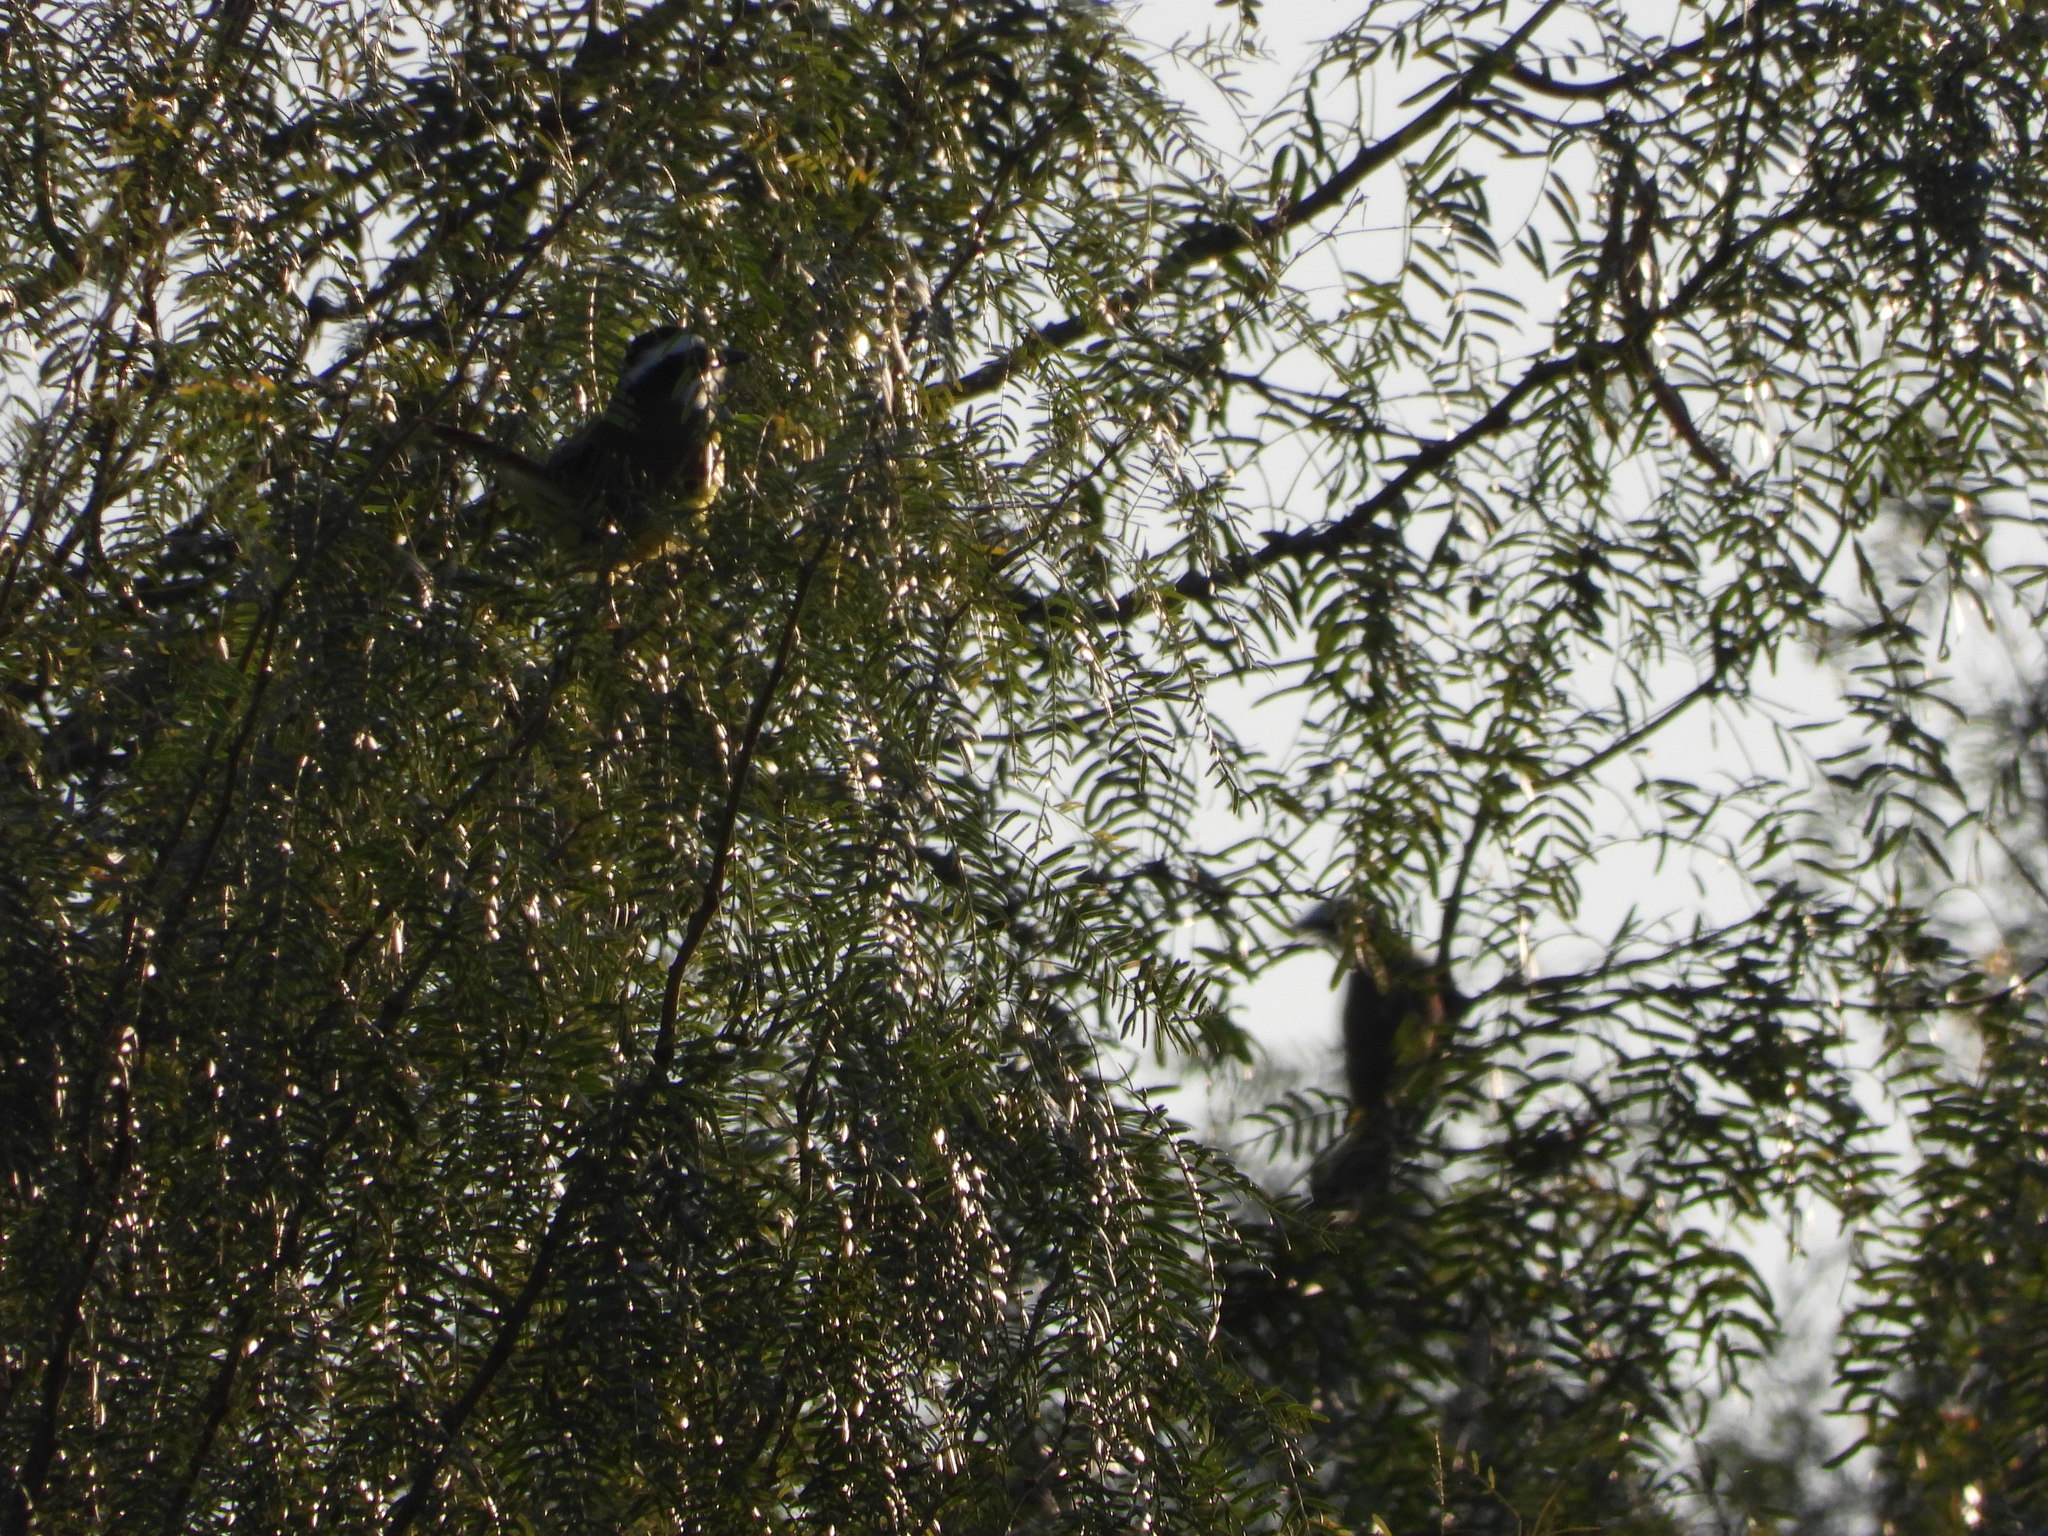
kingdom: Animalia
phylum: Chordata
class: Aves
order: Passeriformes
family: Tyrannidae
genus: Pitangus
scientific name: Pitangus sulphuratus
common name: Great kiskadee
